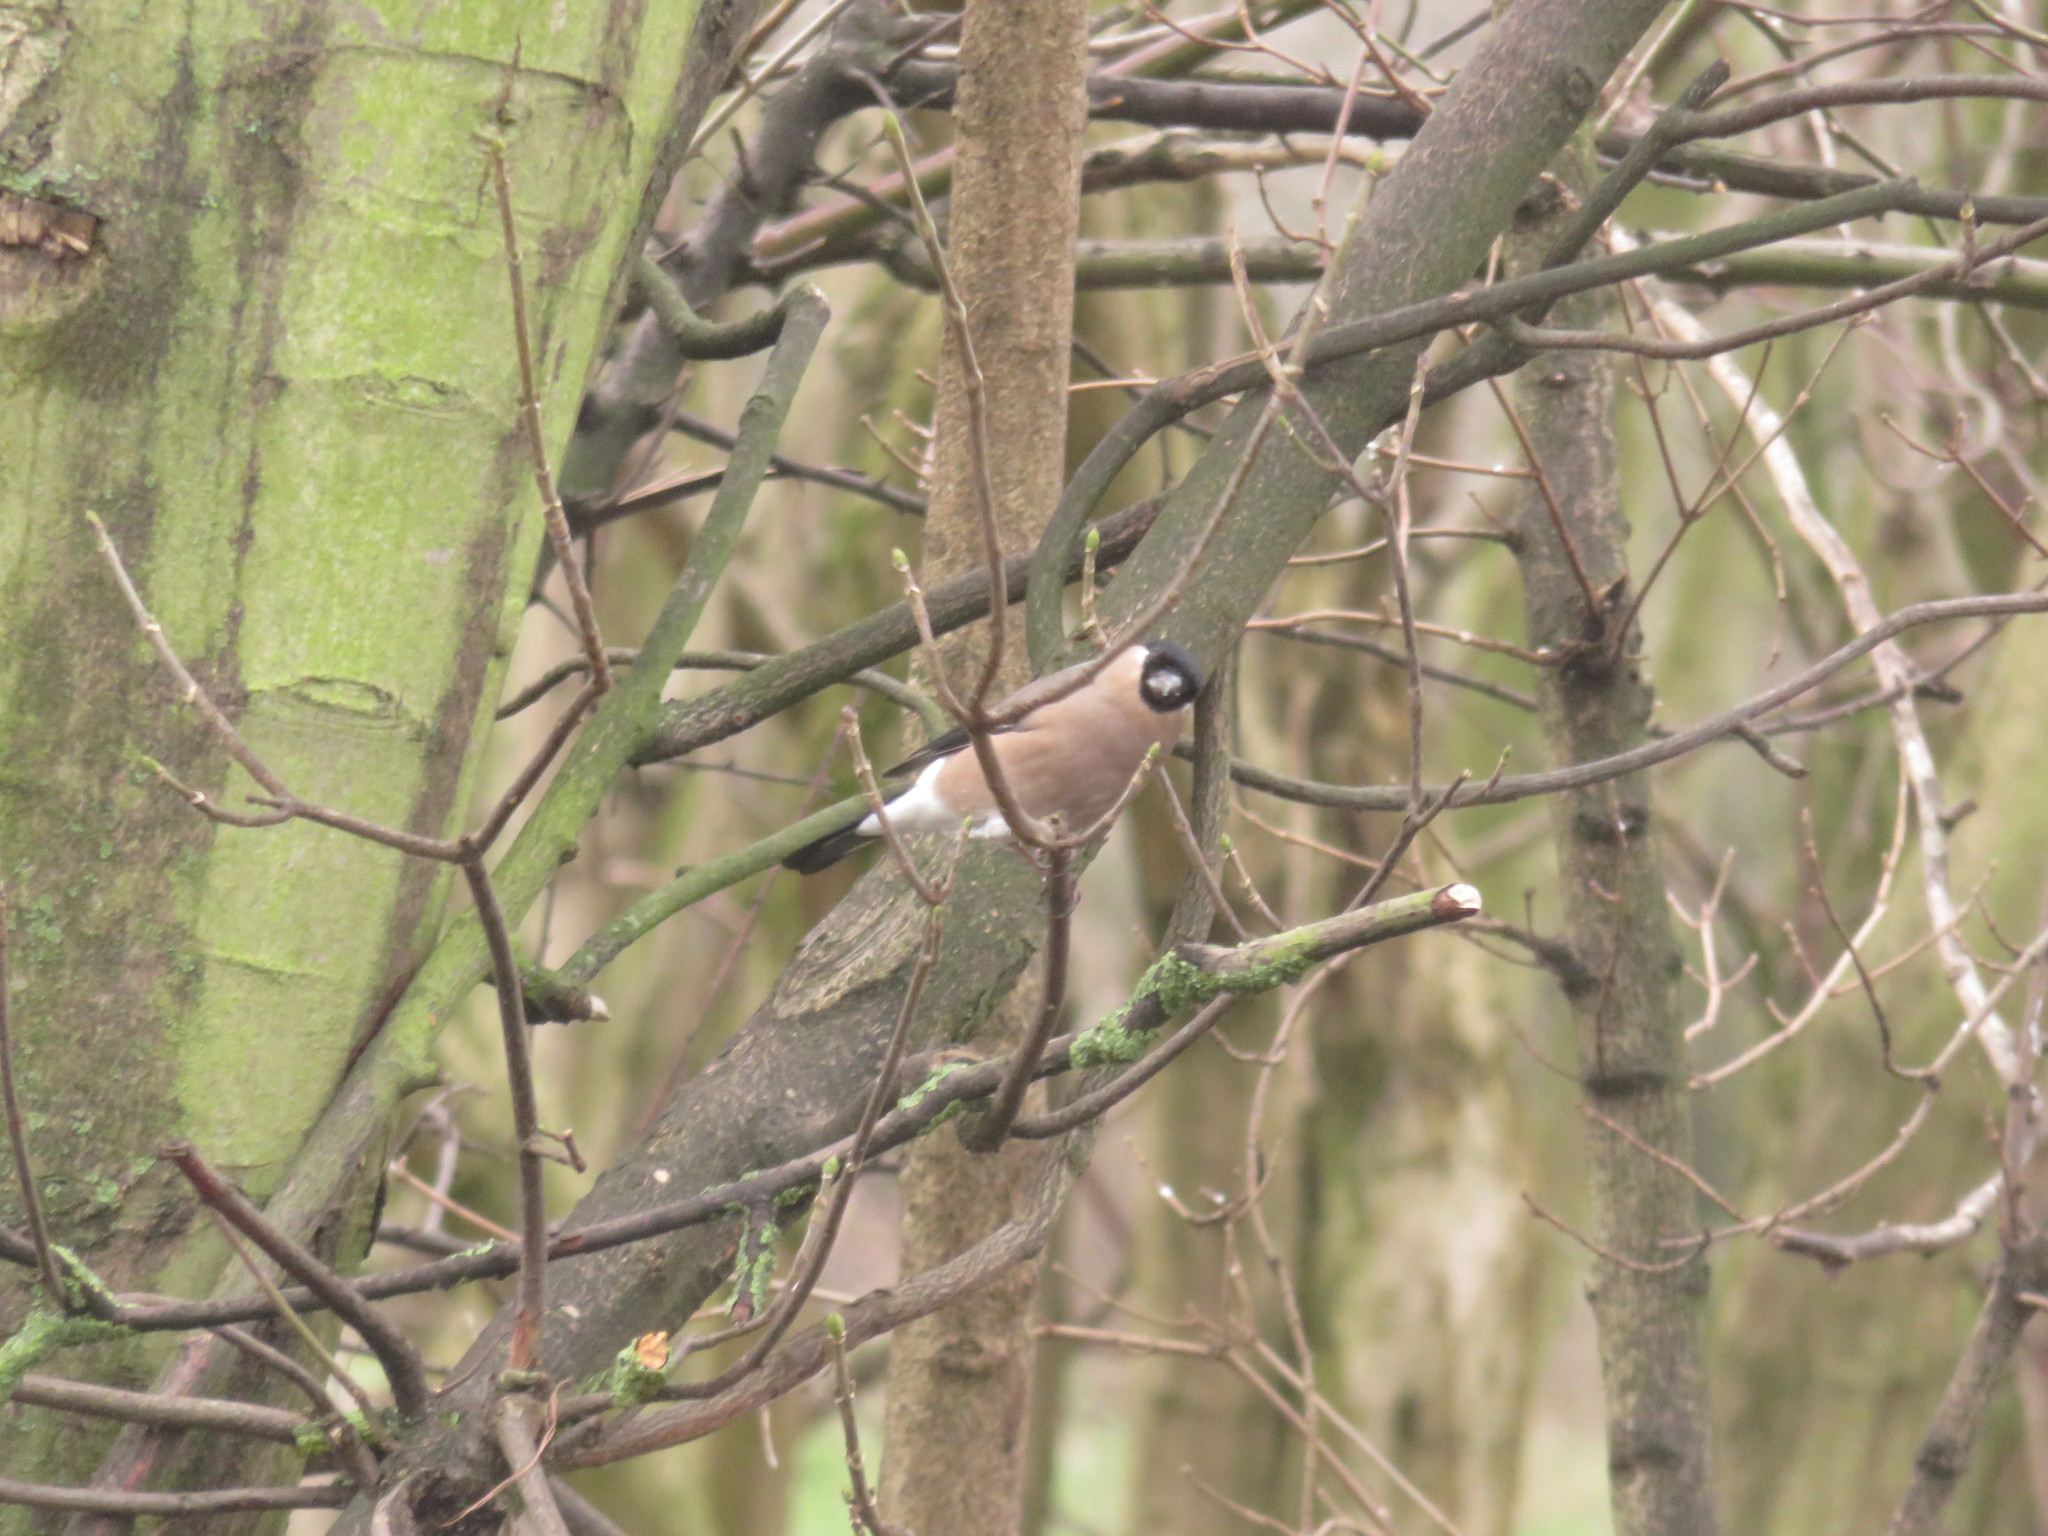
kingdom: Animalia
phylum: Chordata
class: Aves
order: Passeriformes
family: Fringillidae
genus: Pyrrhula
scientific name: Pyrrhula pyrrhula
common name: Eurasian bullfinch
